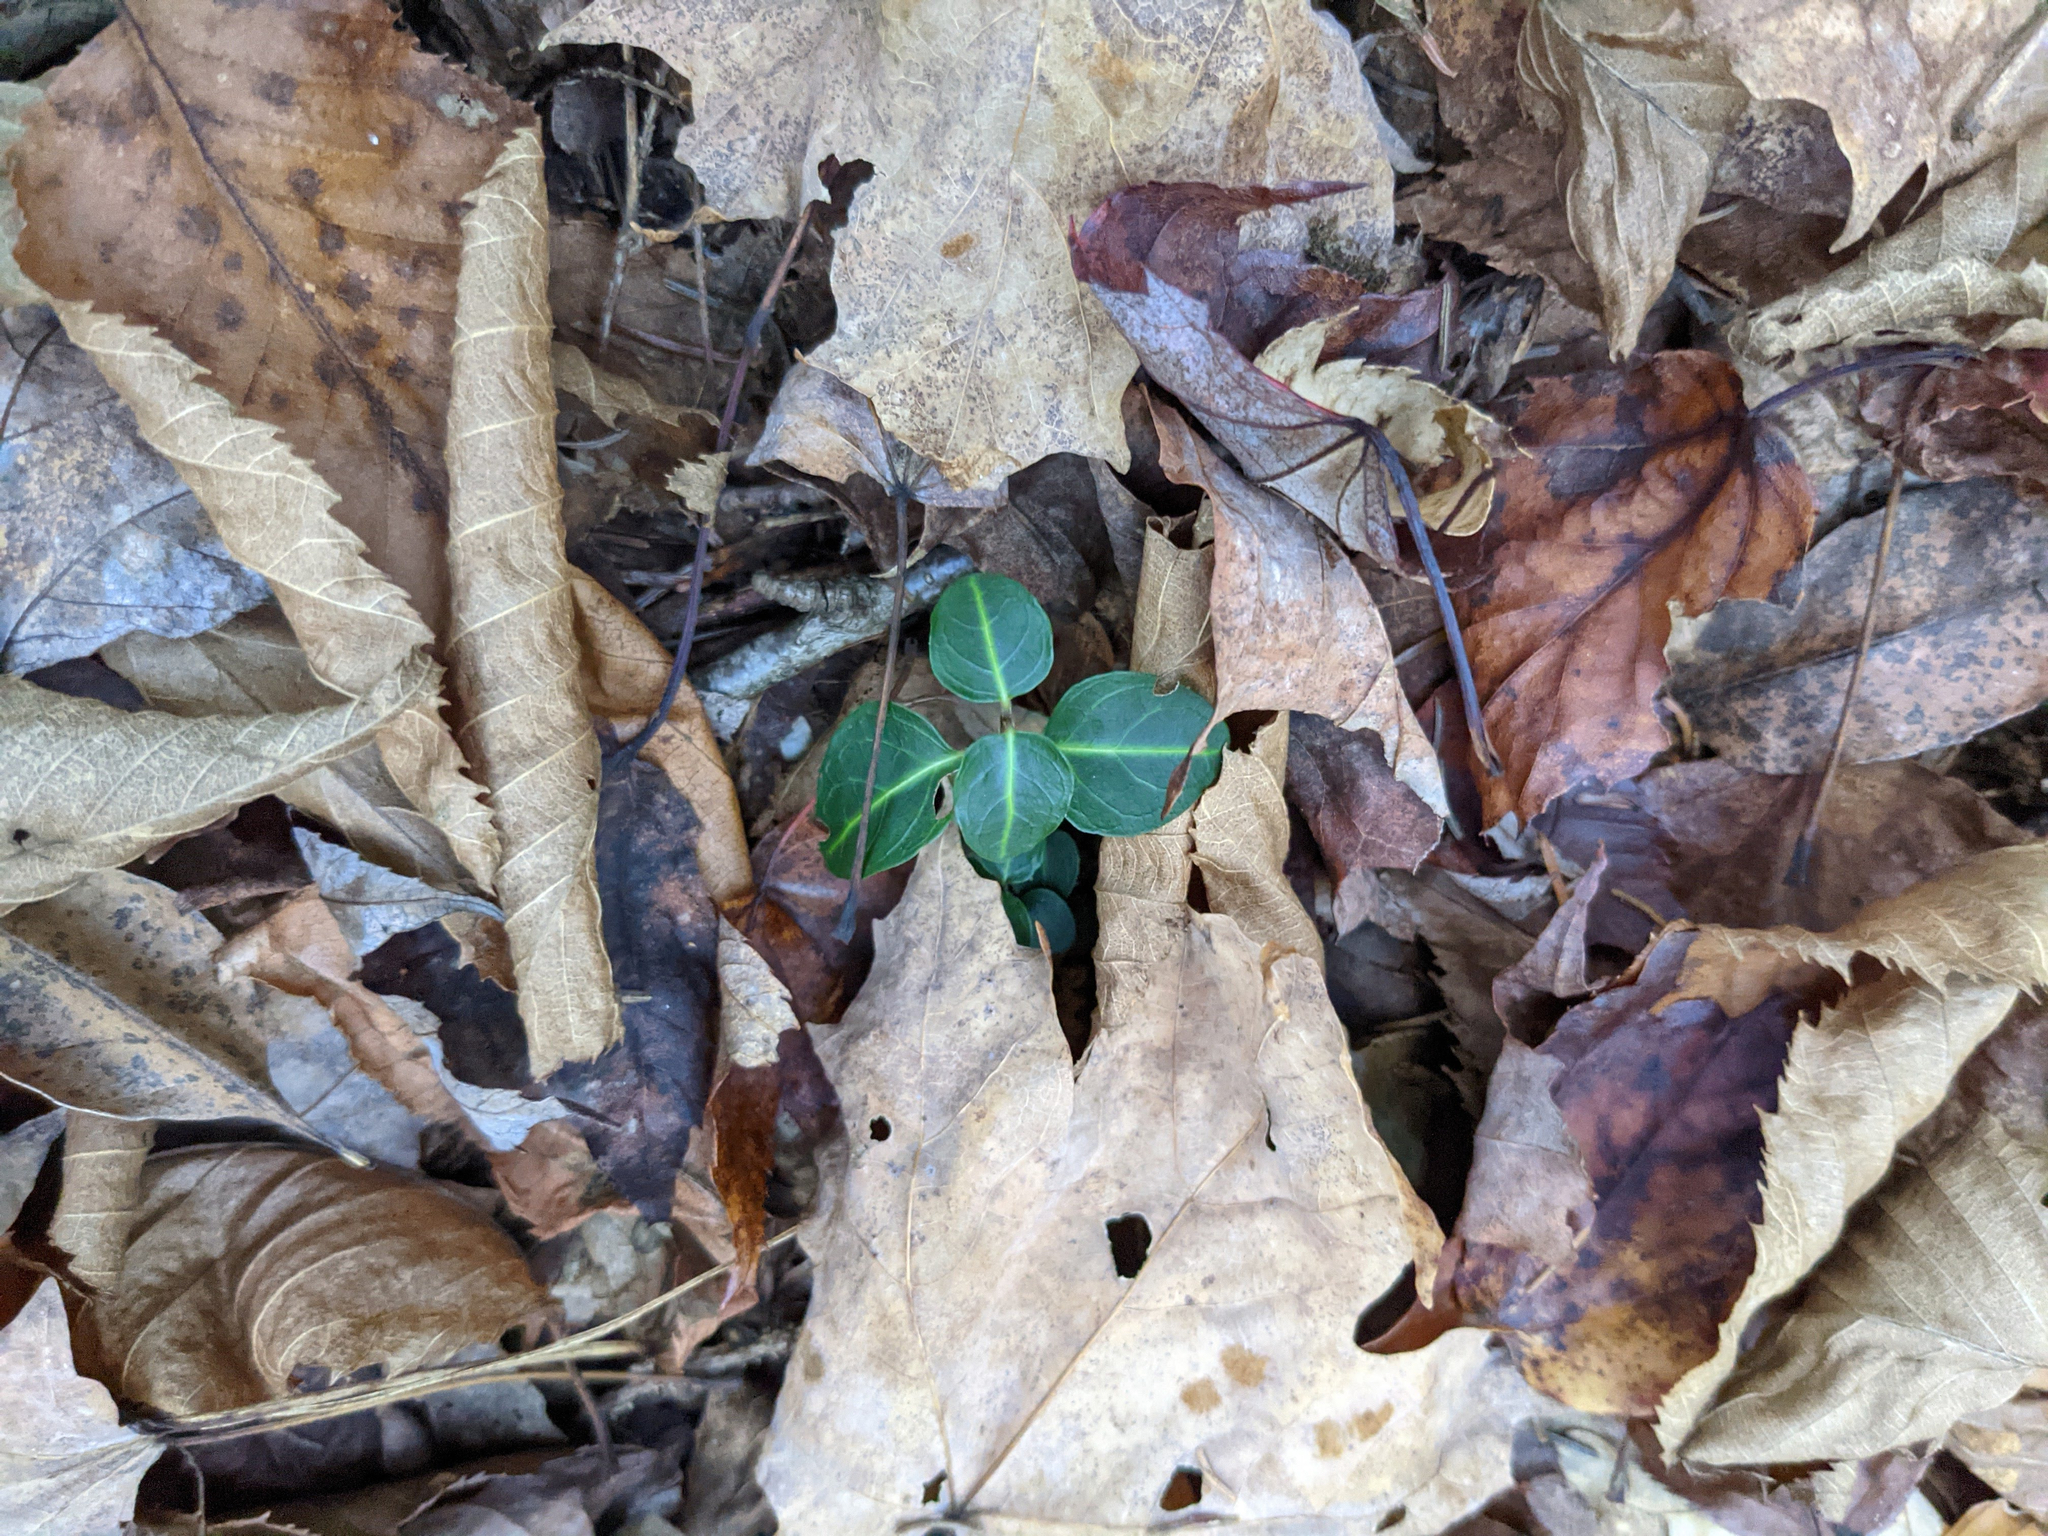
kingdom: Plantae
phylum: Tracheophyta
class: Magnoliopsida
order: Gentianales
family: Rubiaceae
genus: Mitchella
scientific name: Mitchella repens
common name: Partridge-berry
